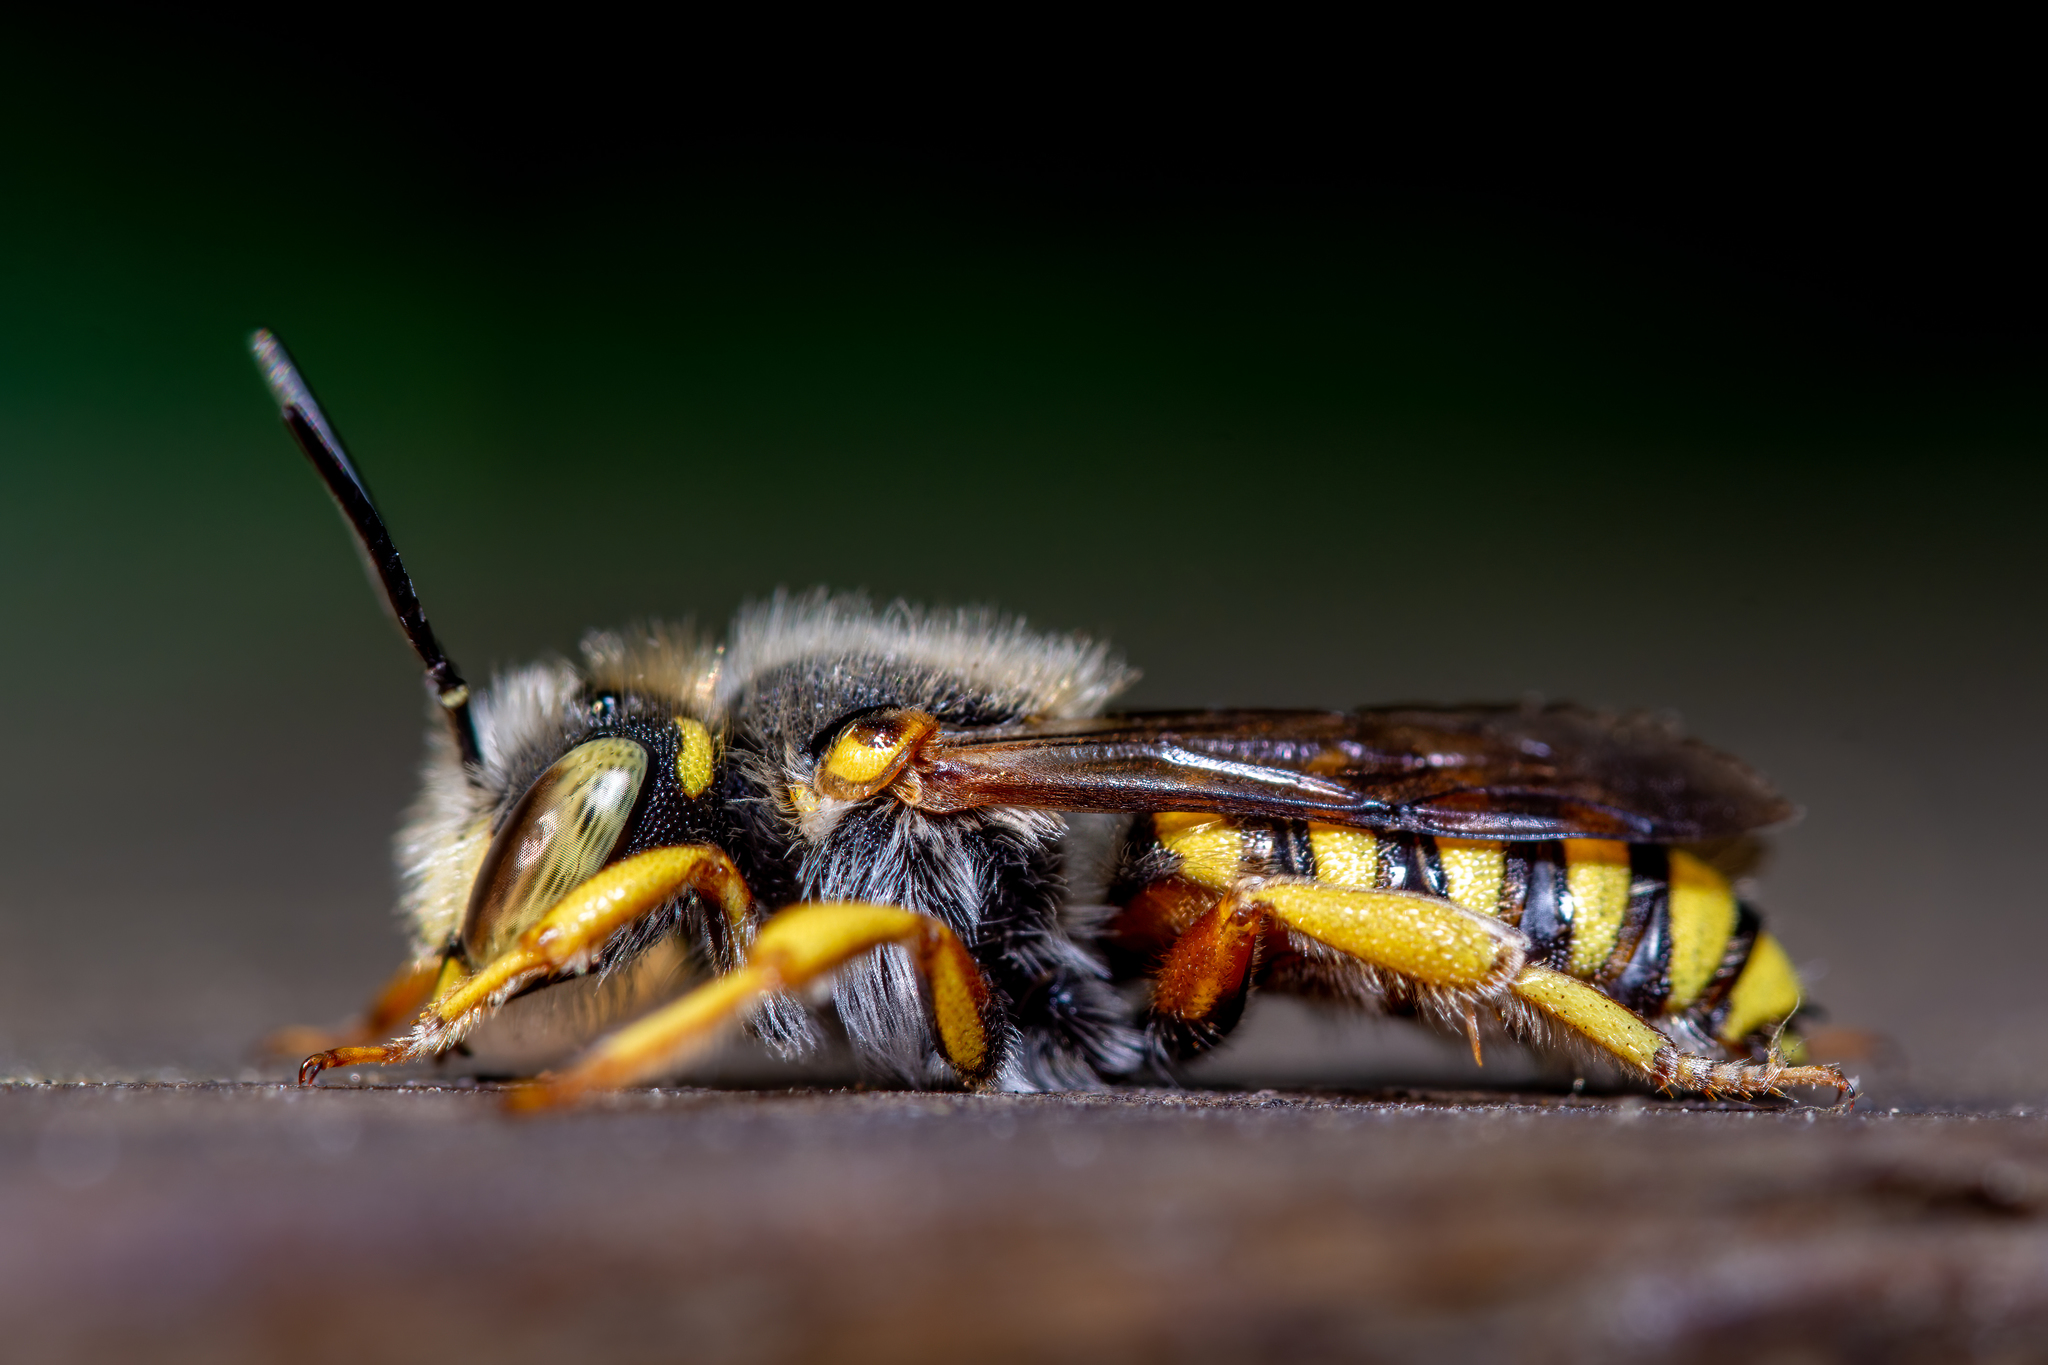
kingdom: Animalia
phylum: Arthropoda
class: Insecta
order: Hymenoptera
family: Megachilidae
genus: Anthidium
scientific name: Anthidium oblongatum
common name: Oblong wool carder bee
